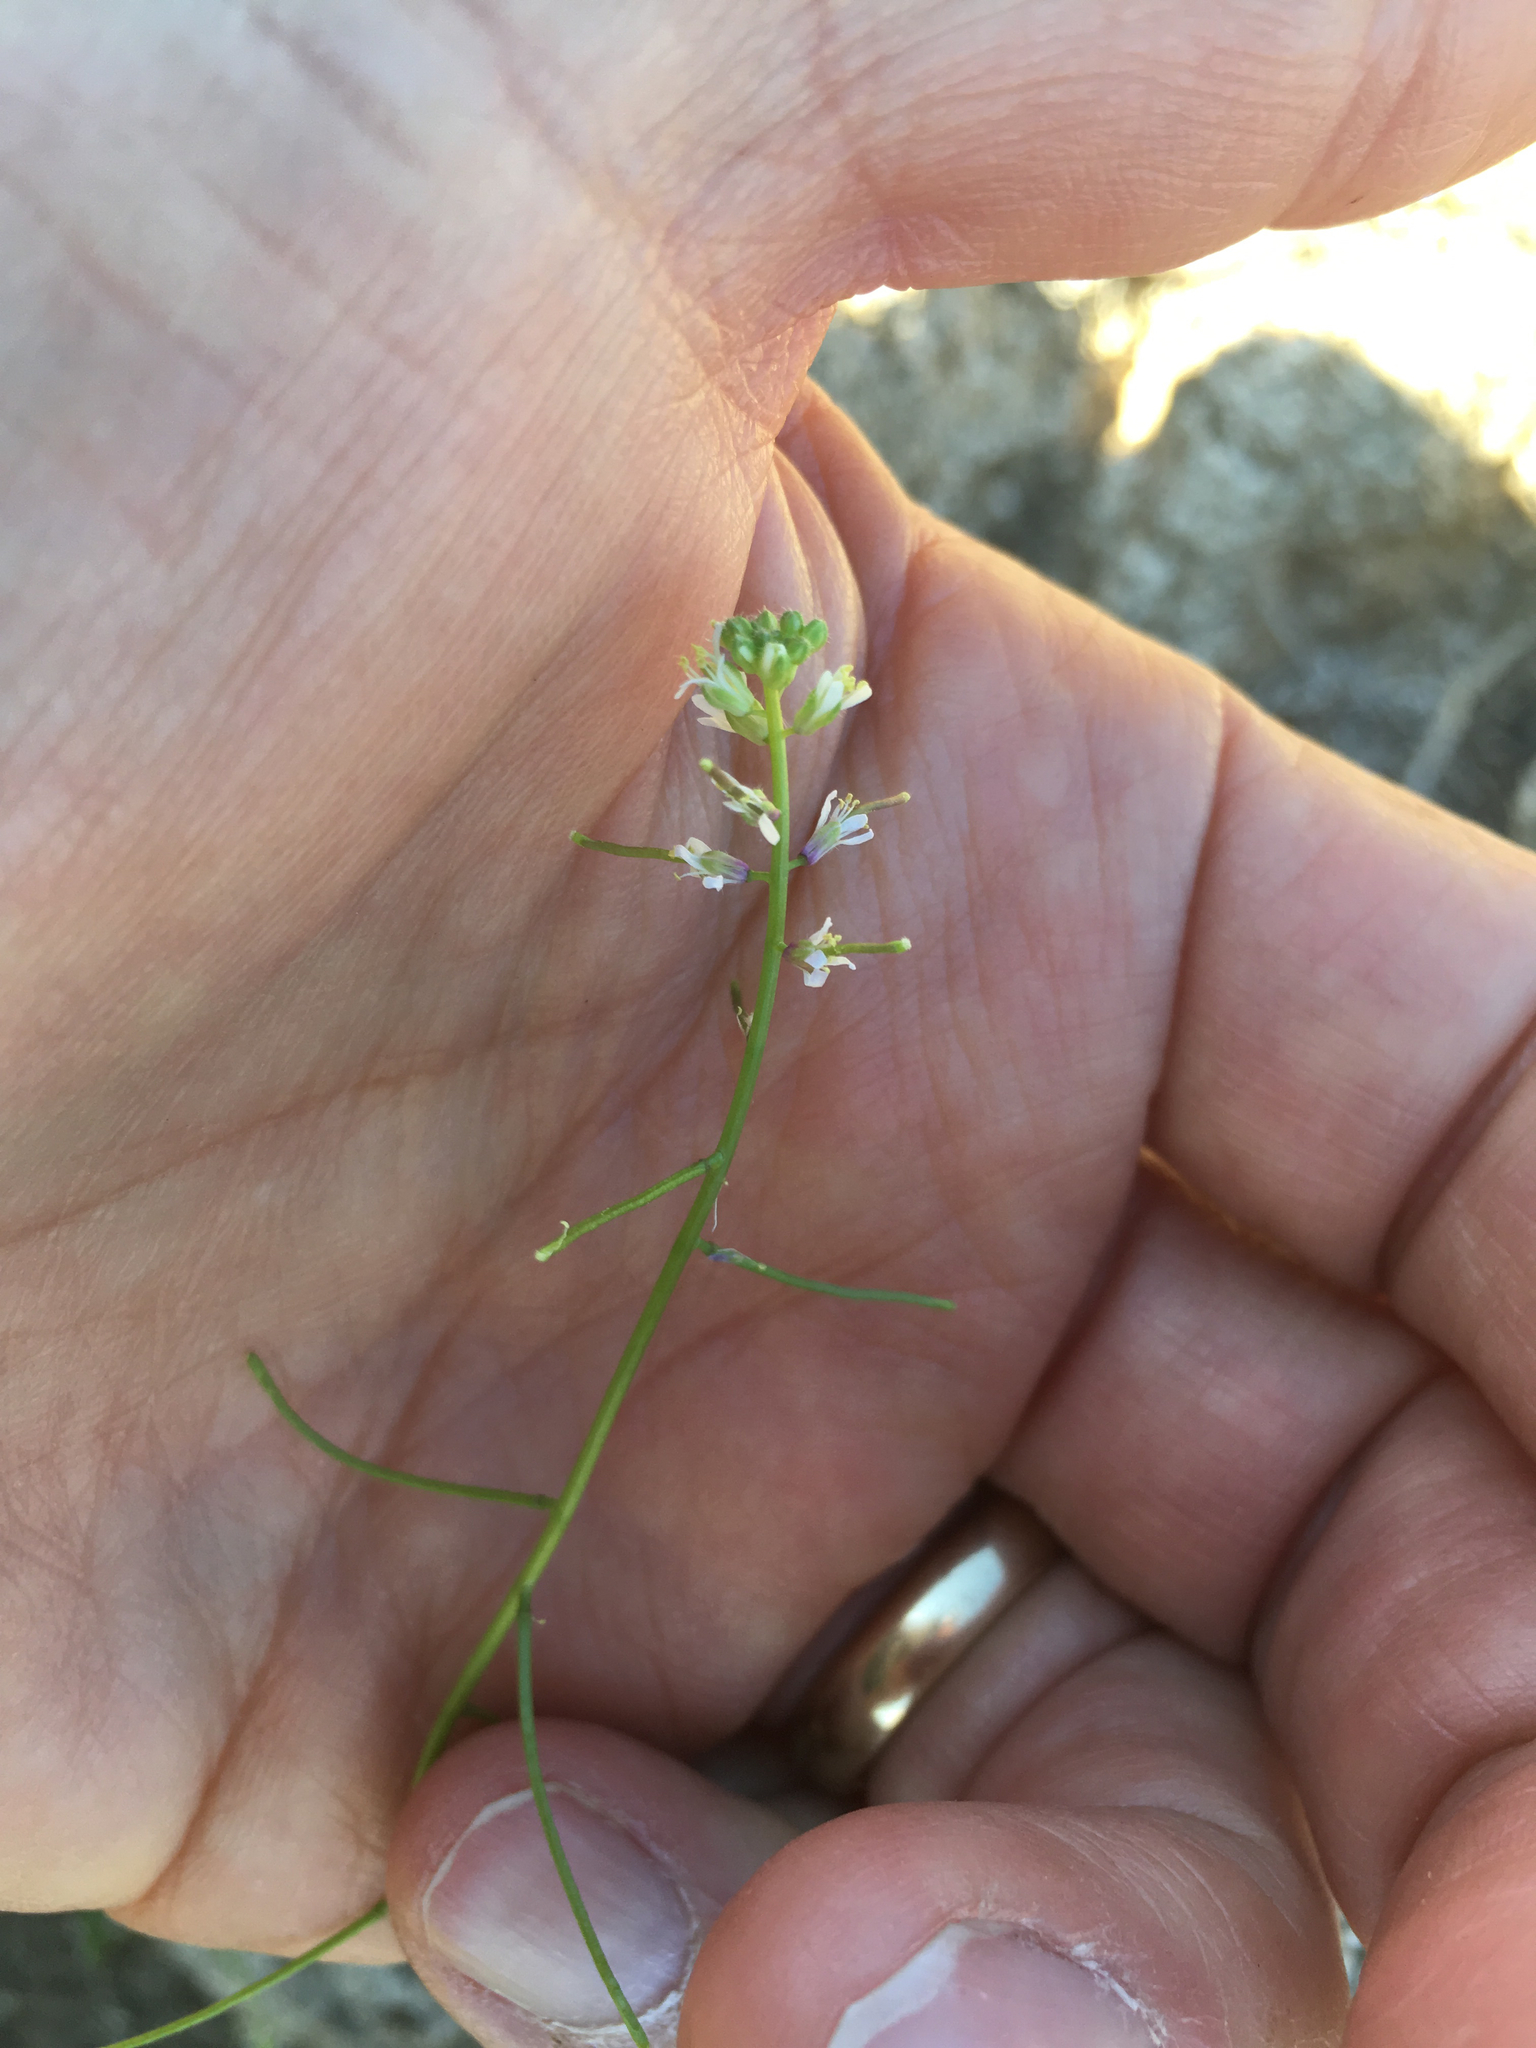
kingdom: Plantae
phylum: Tracheophyta
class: Magnoliopsida
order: Brassicales
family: Brassicaceae
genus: Streptanthus
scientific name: Streptanthus lasiophyllus
